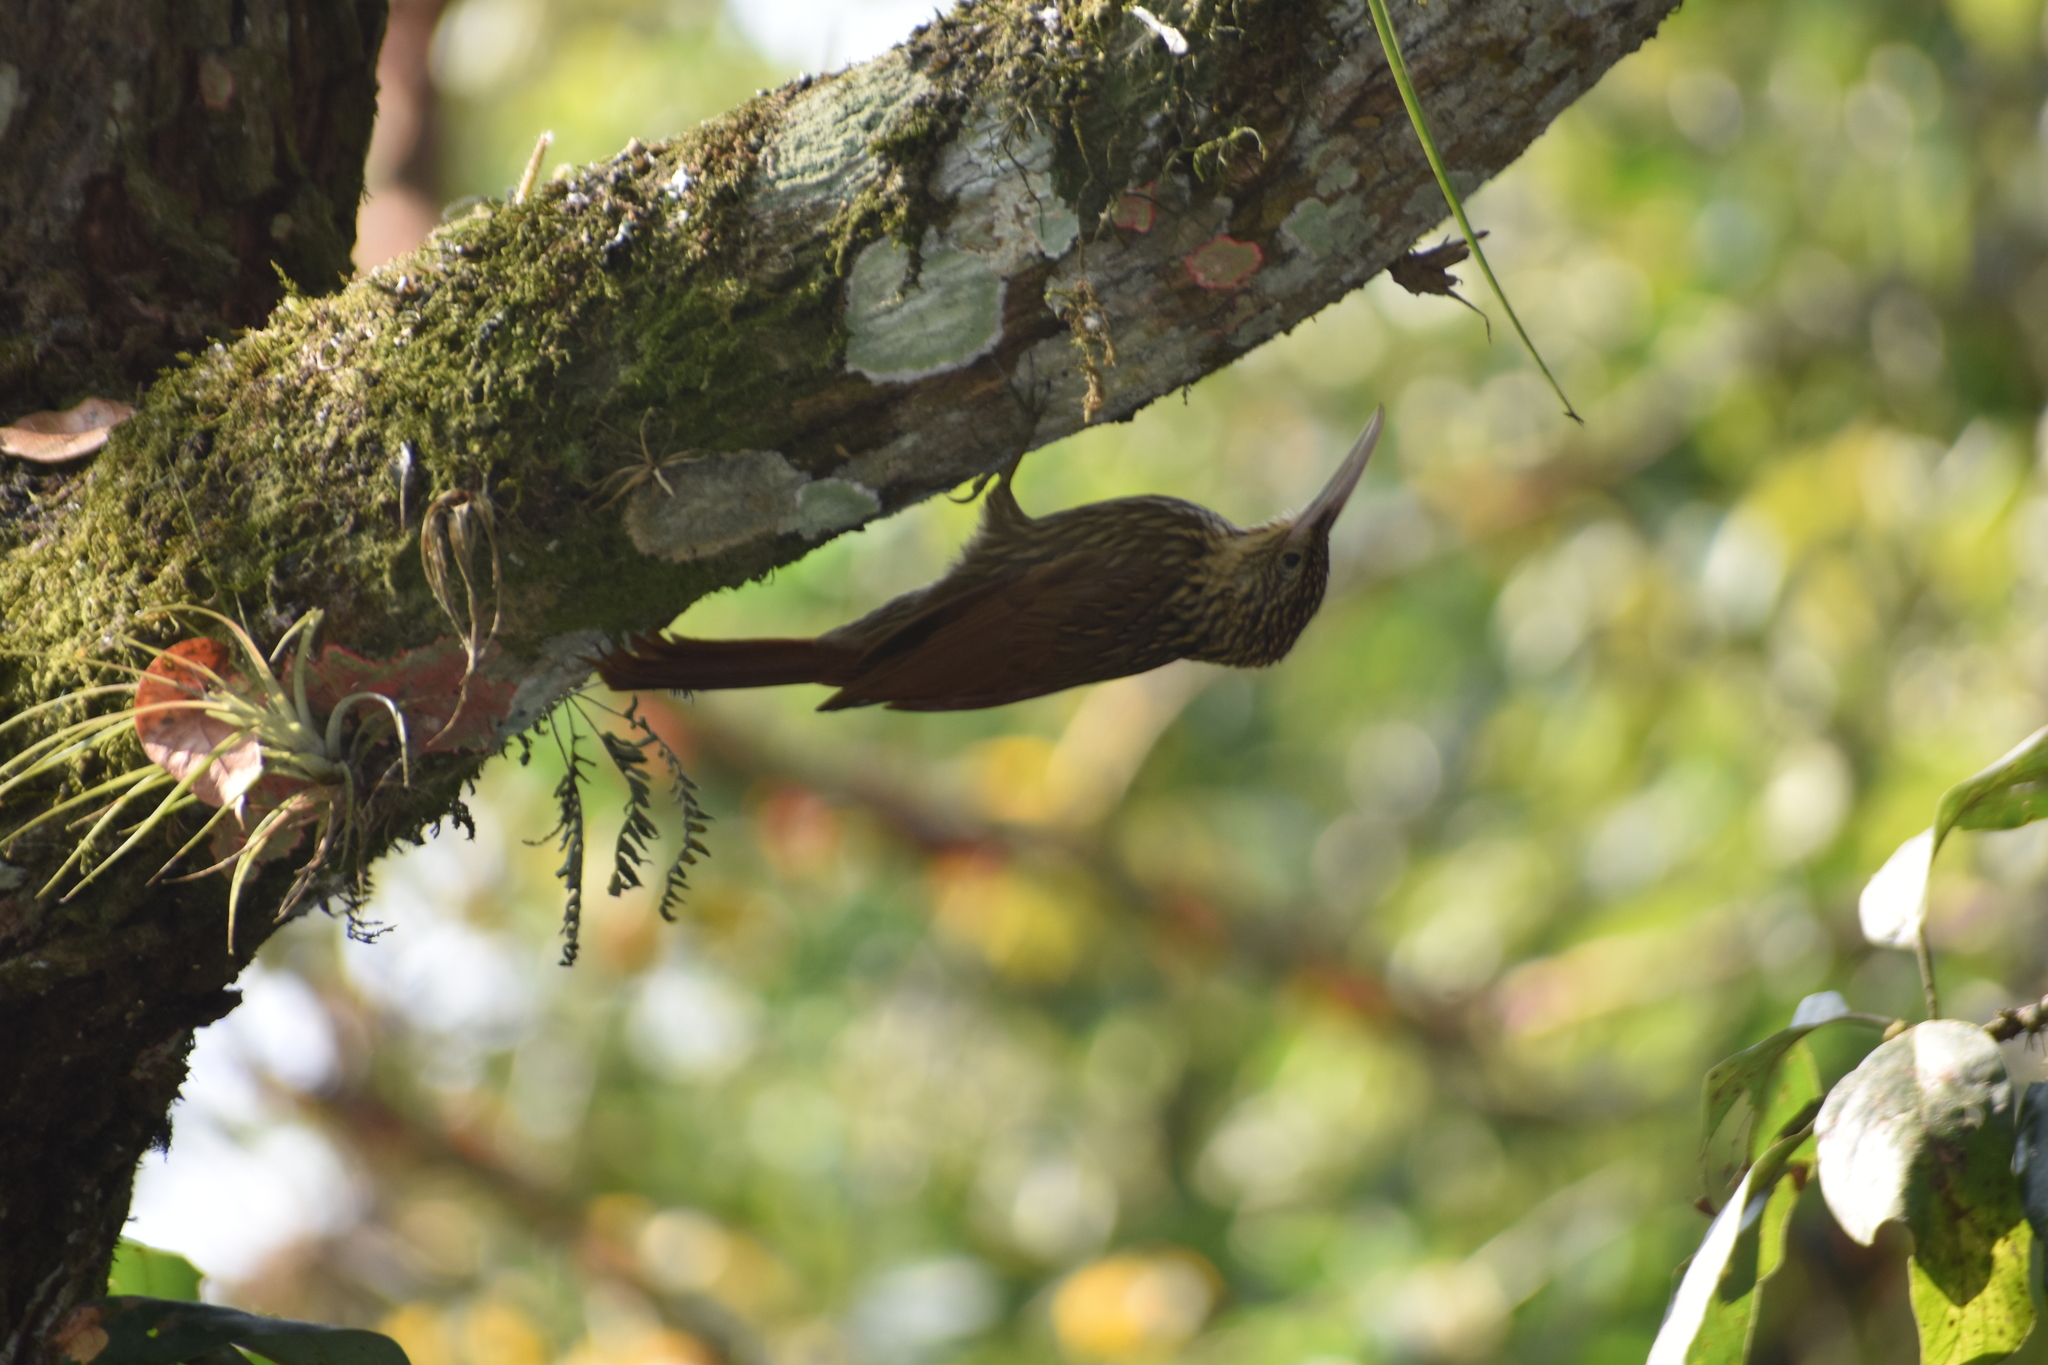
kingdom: Animalia
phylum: Chordata
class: Aves
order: Passeriformes
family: Furnariidae
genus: Xiphorhynchus
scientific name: Xiphorhynchus flavigaster
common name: Ivory-billed woodcreeper
